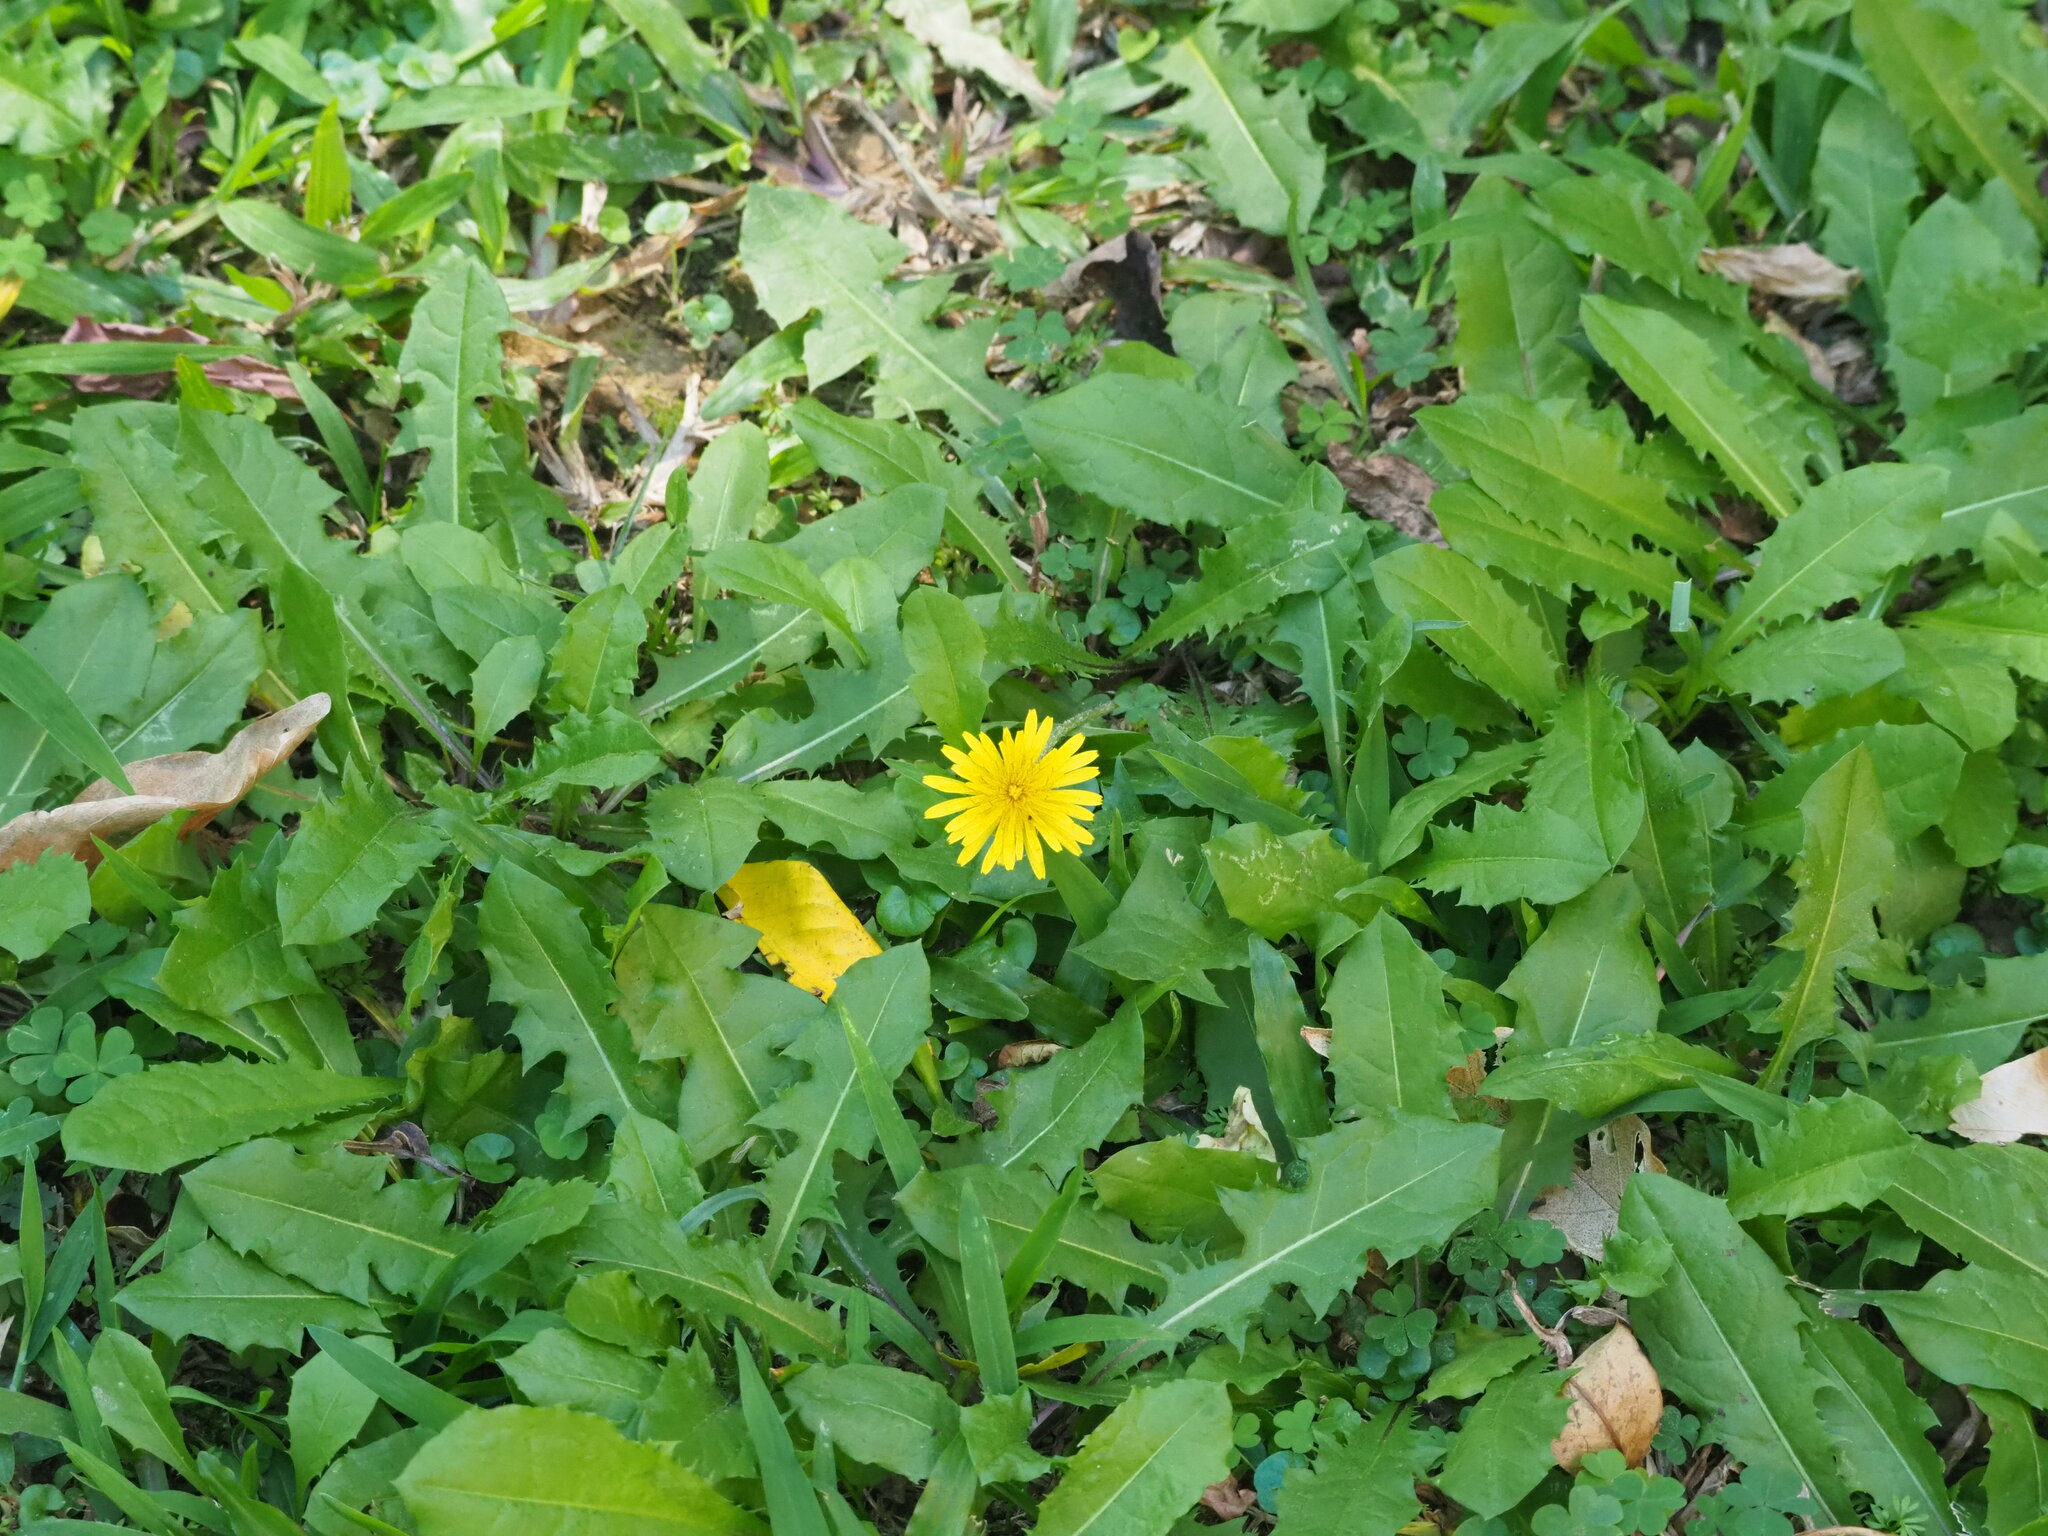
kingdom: Plantae
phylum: Tracheophyta
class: Magnoliopsida
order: Asterales
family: Asteraceae
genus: Taraxacum
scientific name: Taraxacum officinale
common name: Common dandelion
